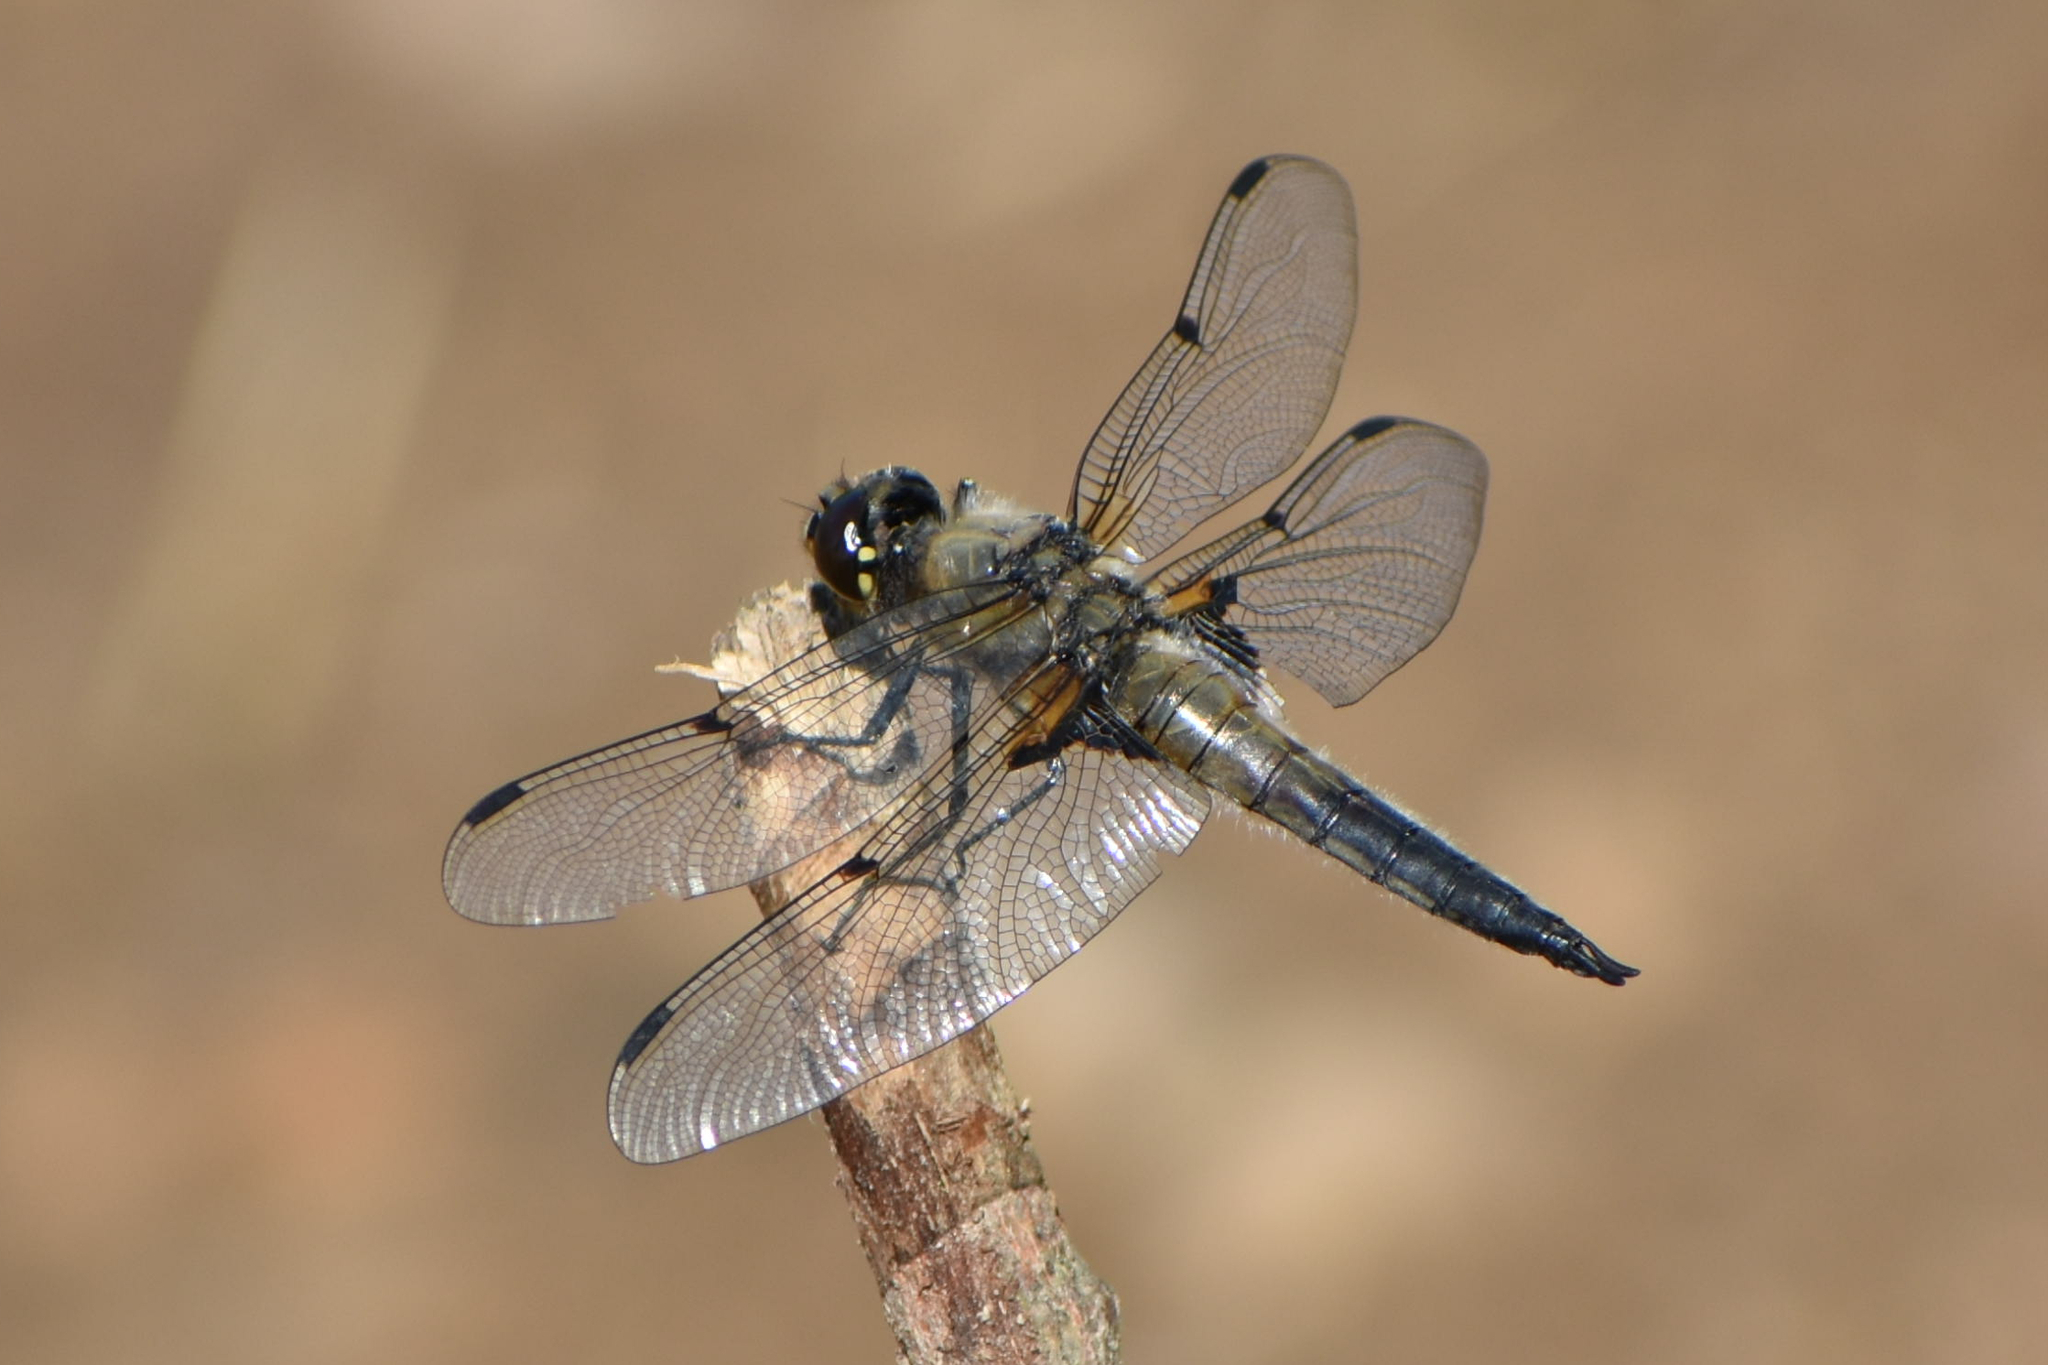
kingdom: Animalia
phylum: Arthropoda
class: Insecta
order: Odonata
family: Libellulidae
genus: Libellula
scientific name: Libellula quadrimaculata
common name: Four-spotted chaser
